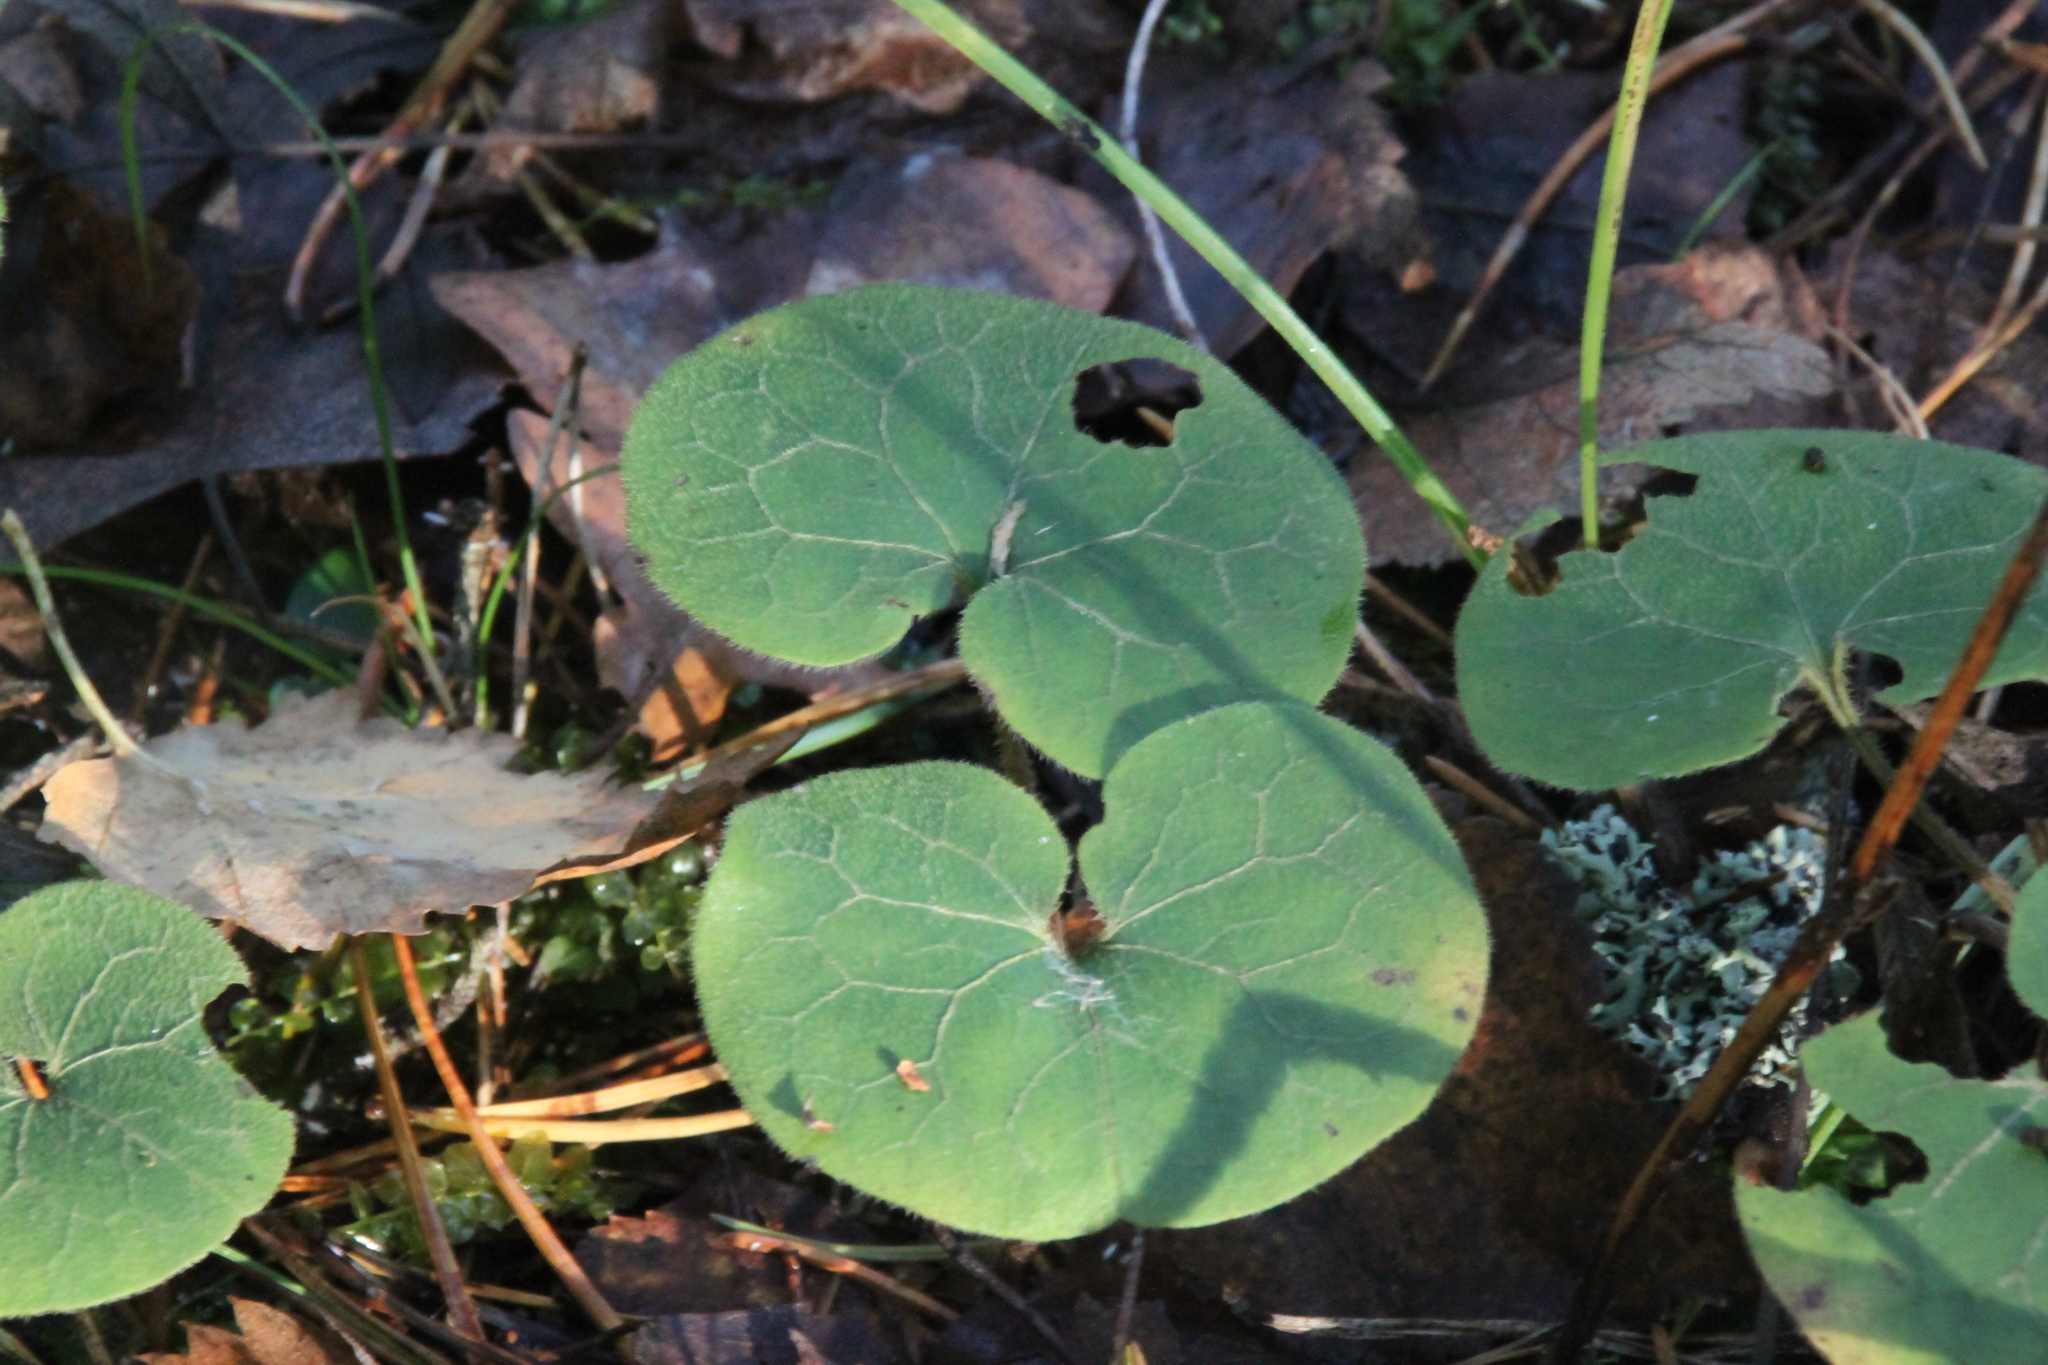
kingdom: Plantae
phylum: Tracheophyta
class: Magnoliopsida
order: Piperales
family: Aristolochiaceae
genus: Asarum
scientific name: Asarum europaeum
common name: Asarabacca
